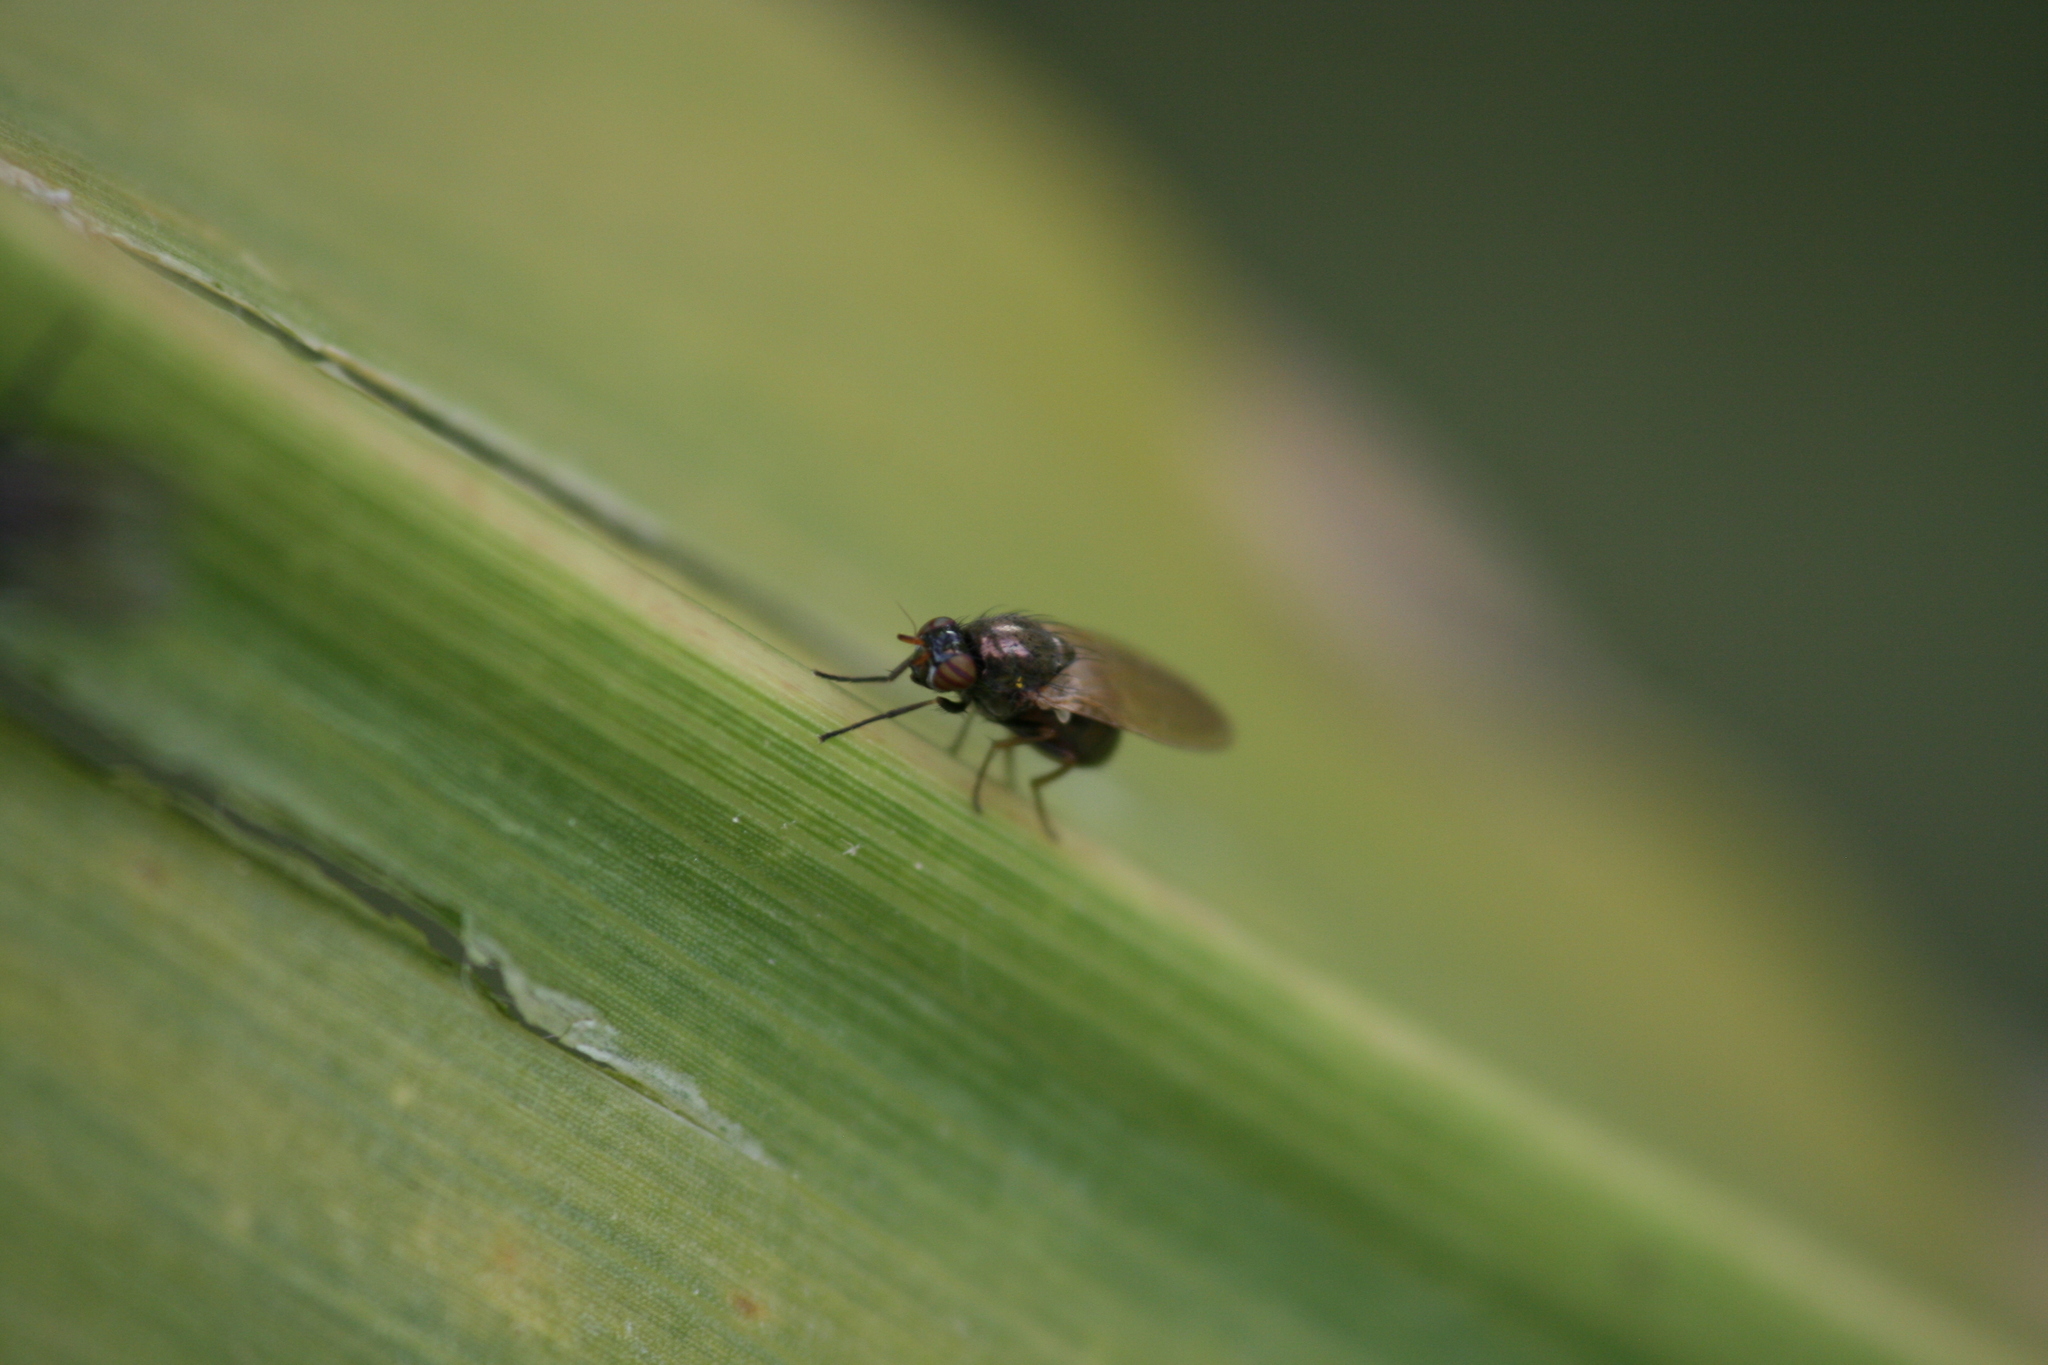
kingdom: Animalia
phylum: Arthropoda
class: Insecta
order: Diptera
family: Lauxaniidae
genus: Calliopum
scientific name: Calliopum
